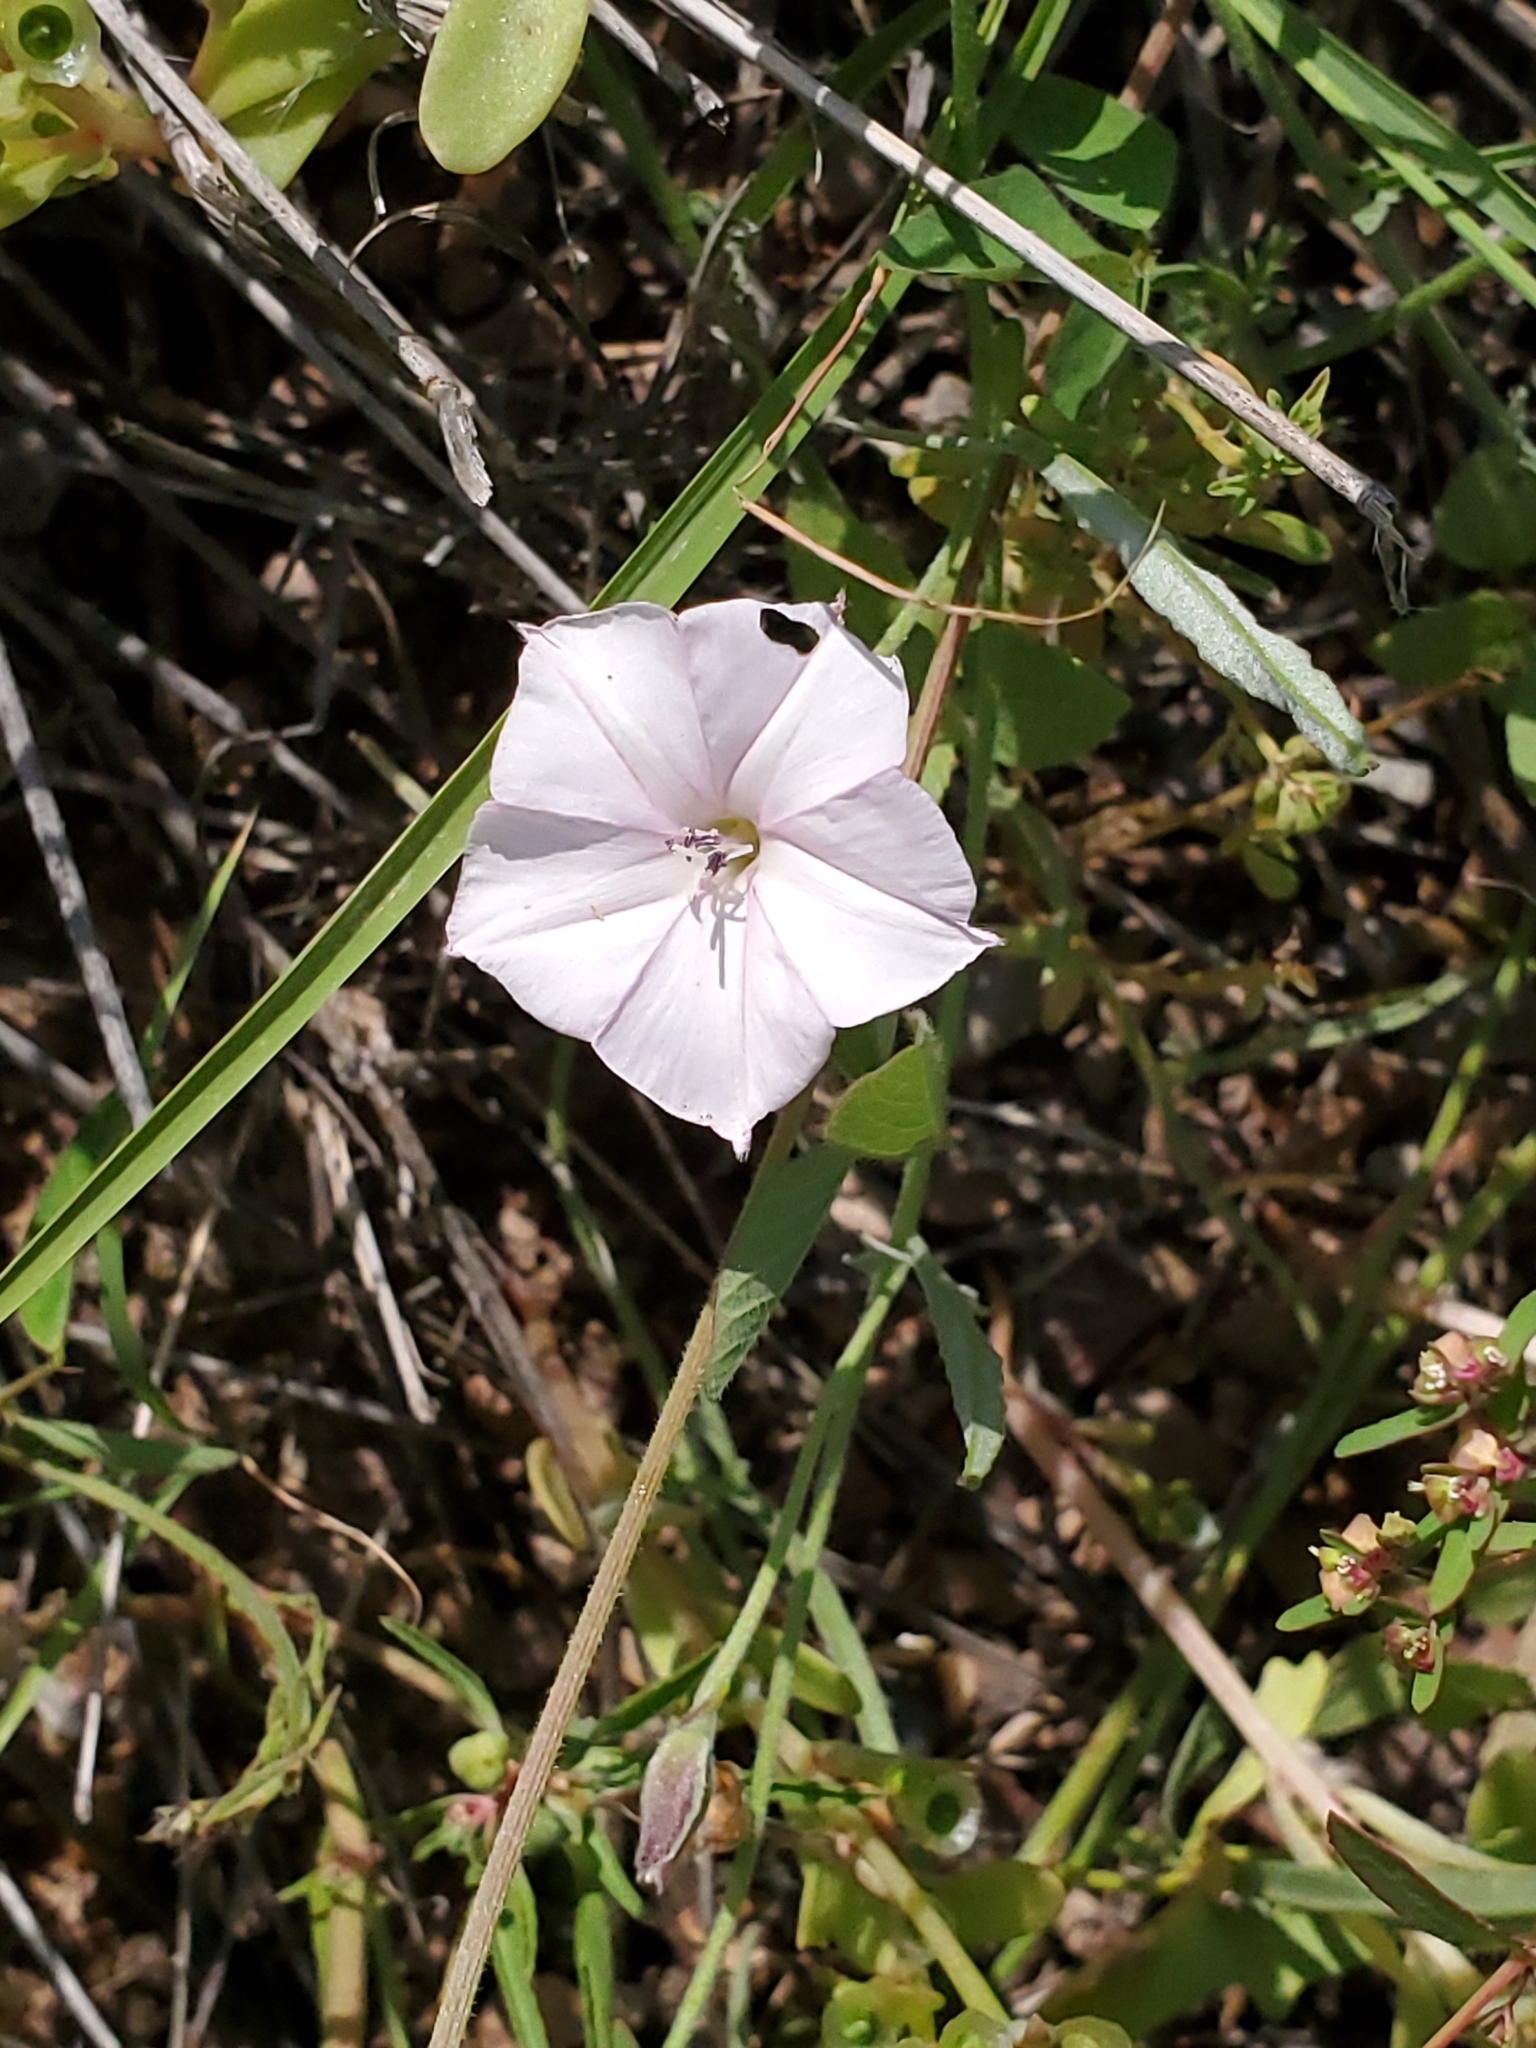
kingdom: Plantae
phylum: Tracheophyta
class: Magnoliopsida
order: Solanales
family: Convolvulaceae
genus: Convolvulus
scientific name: Convolvulus equitans
